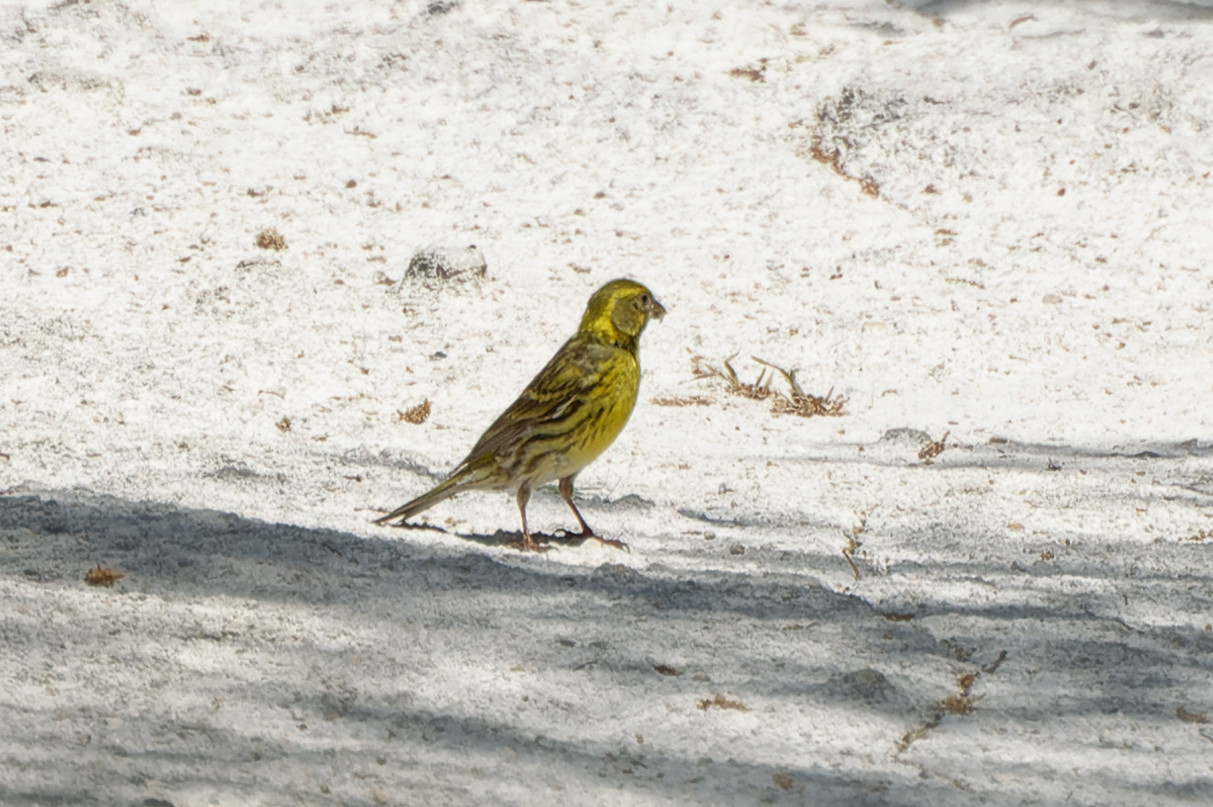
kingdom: Animalia
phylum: Chordata
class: Aves
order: Passeriformes
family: Fringillidae
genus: Serinus
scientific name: Serinus serinus
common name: European serin
